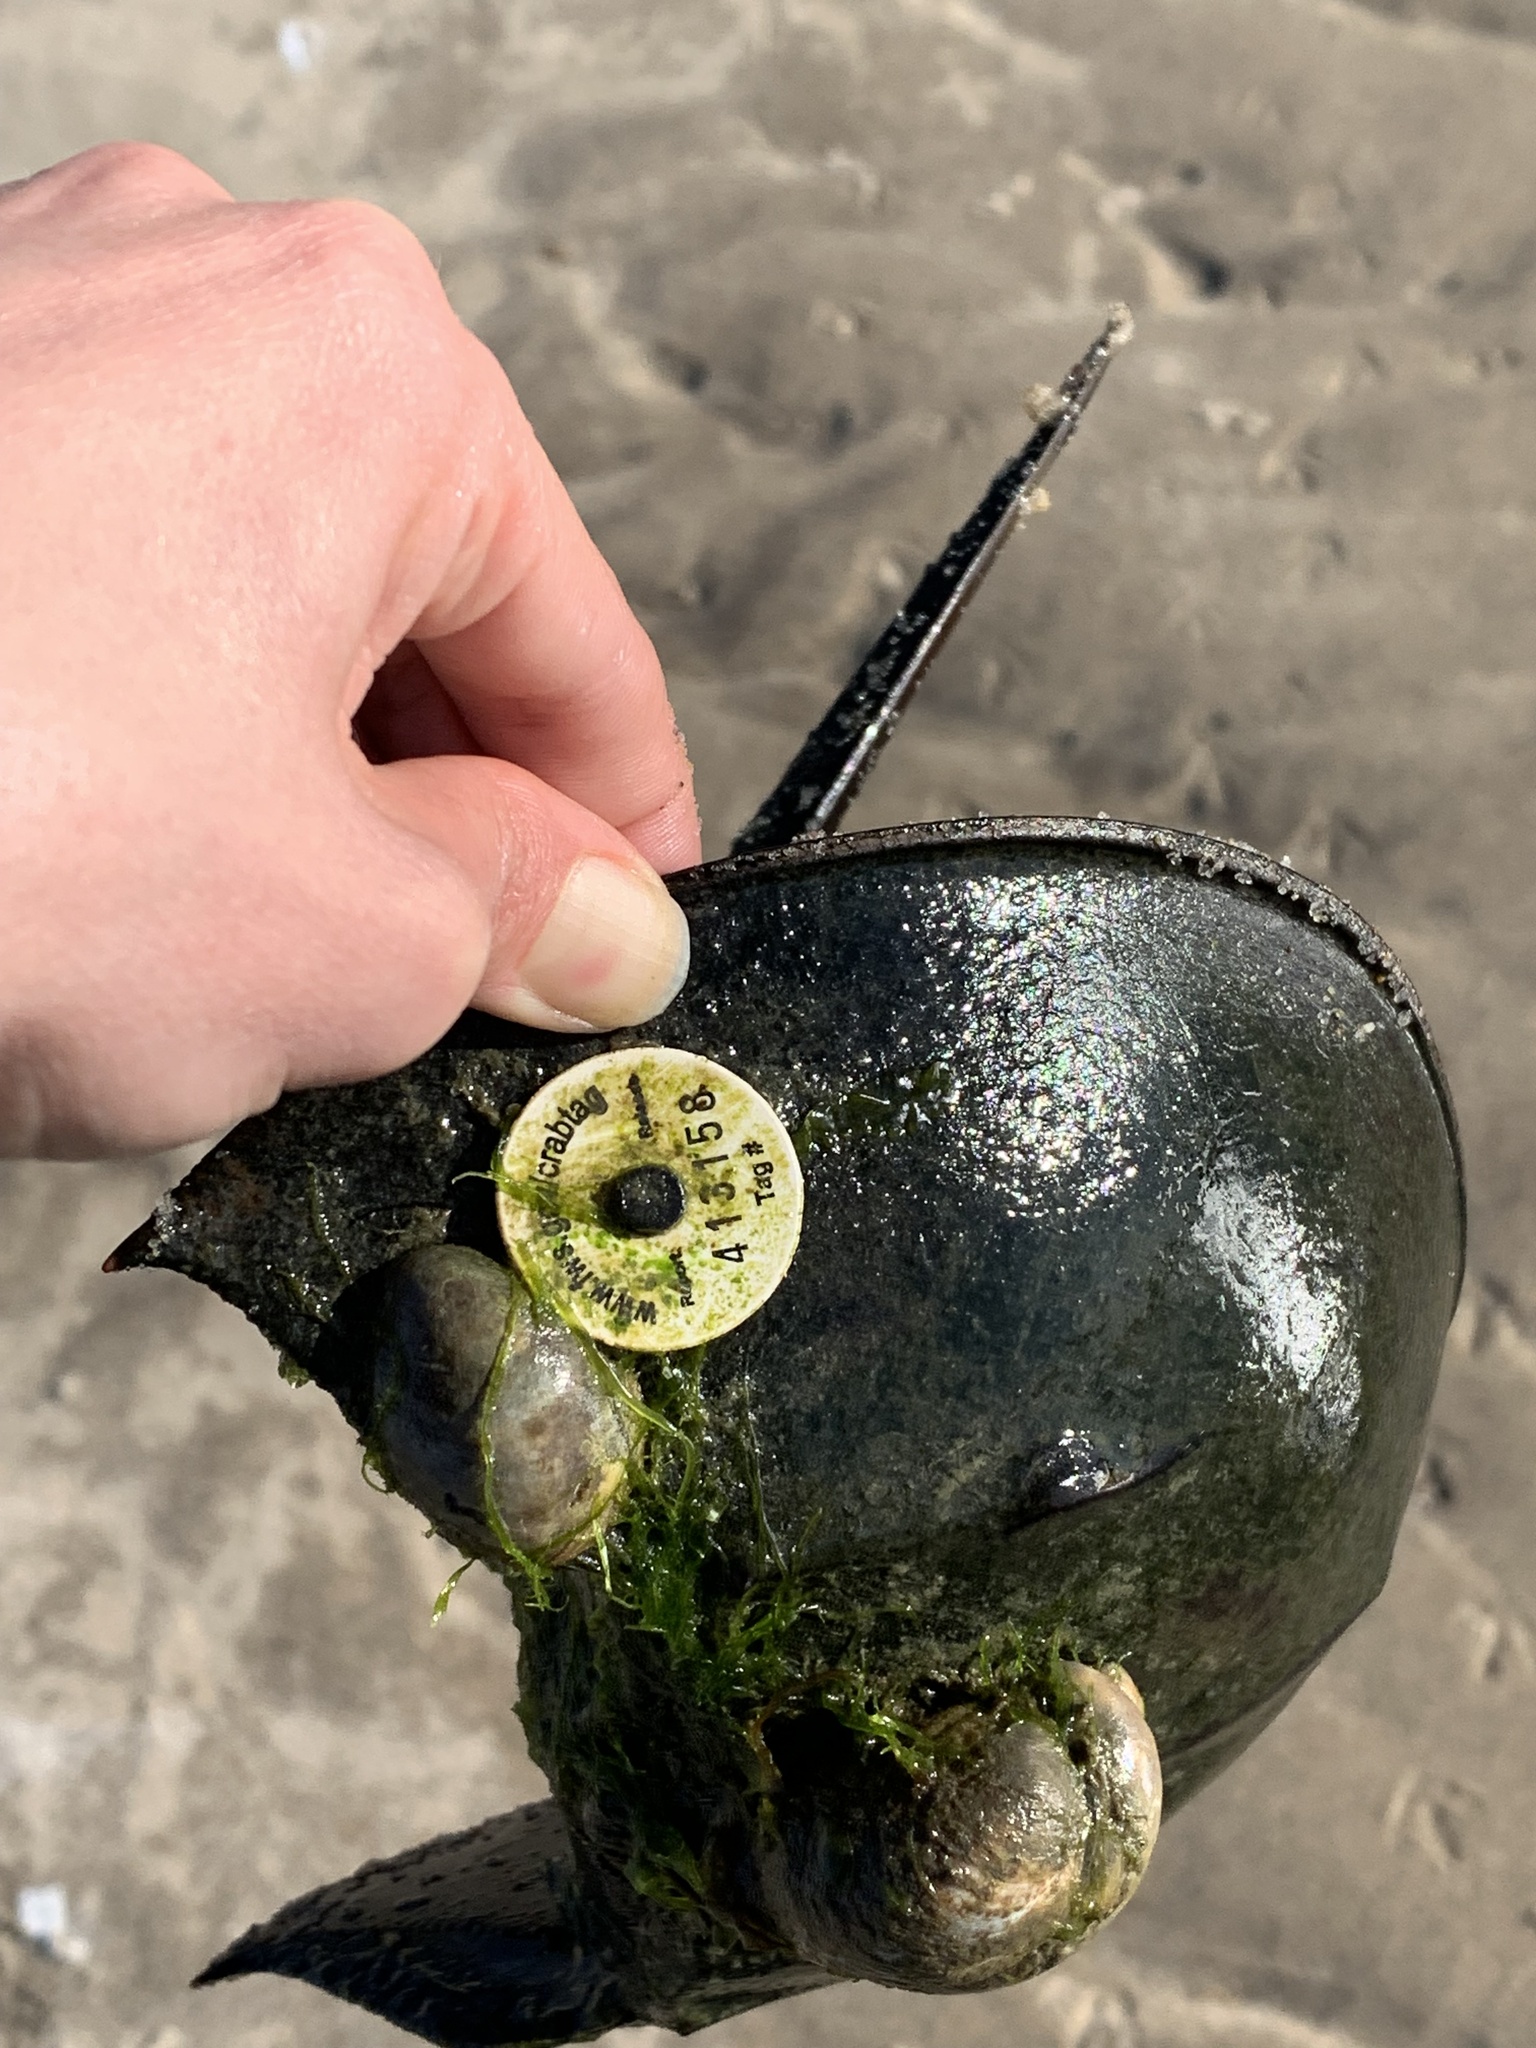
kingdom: Animalia
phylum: Arthropoda
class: Merostomata
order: Xiphosurida
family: Limulidae
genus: Limulus
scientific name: Limulus polyphemus
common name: Horseshoe crab
